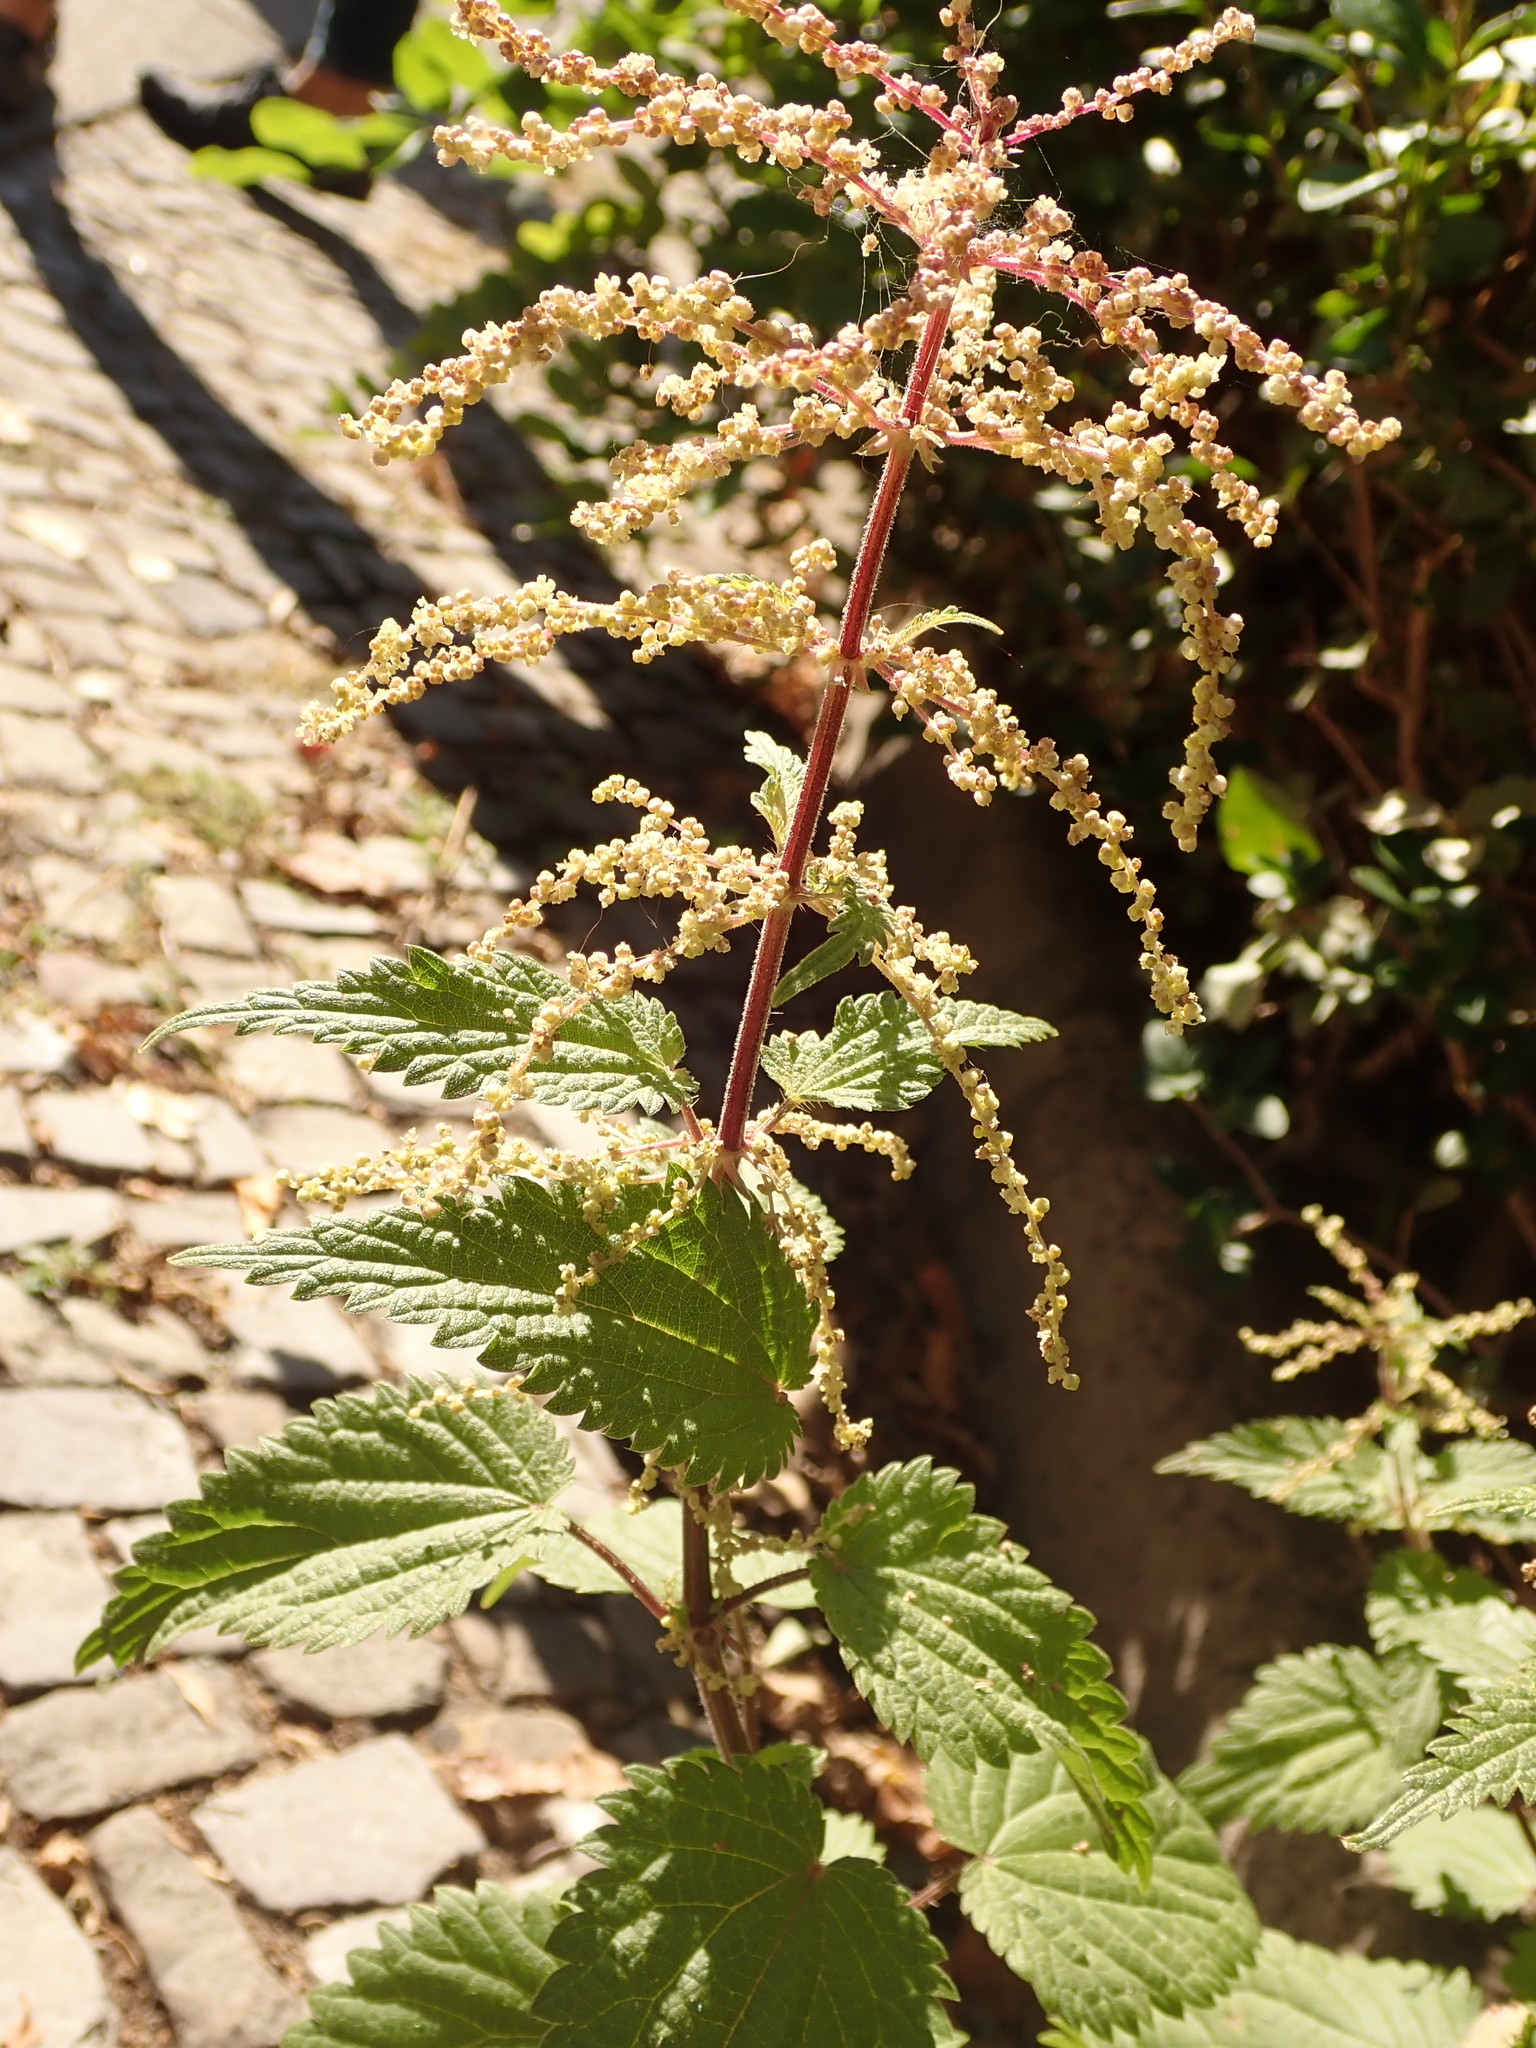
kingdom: Plantae
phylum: Tracheophyta
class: Magnoliopsida
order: Rosales
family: Urticaceae
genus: Urtica
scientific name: Urtica dioica
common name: Common nettle
